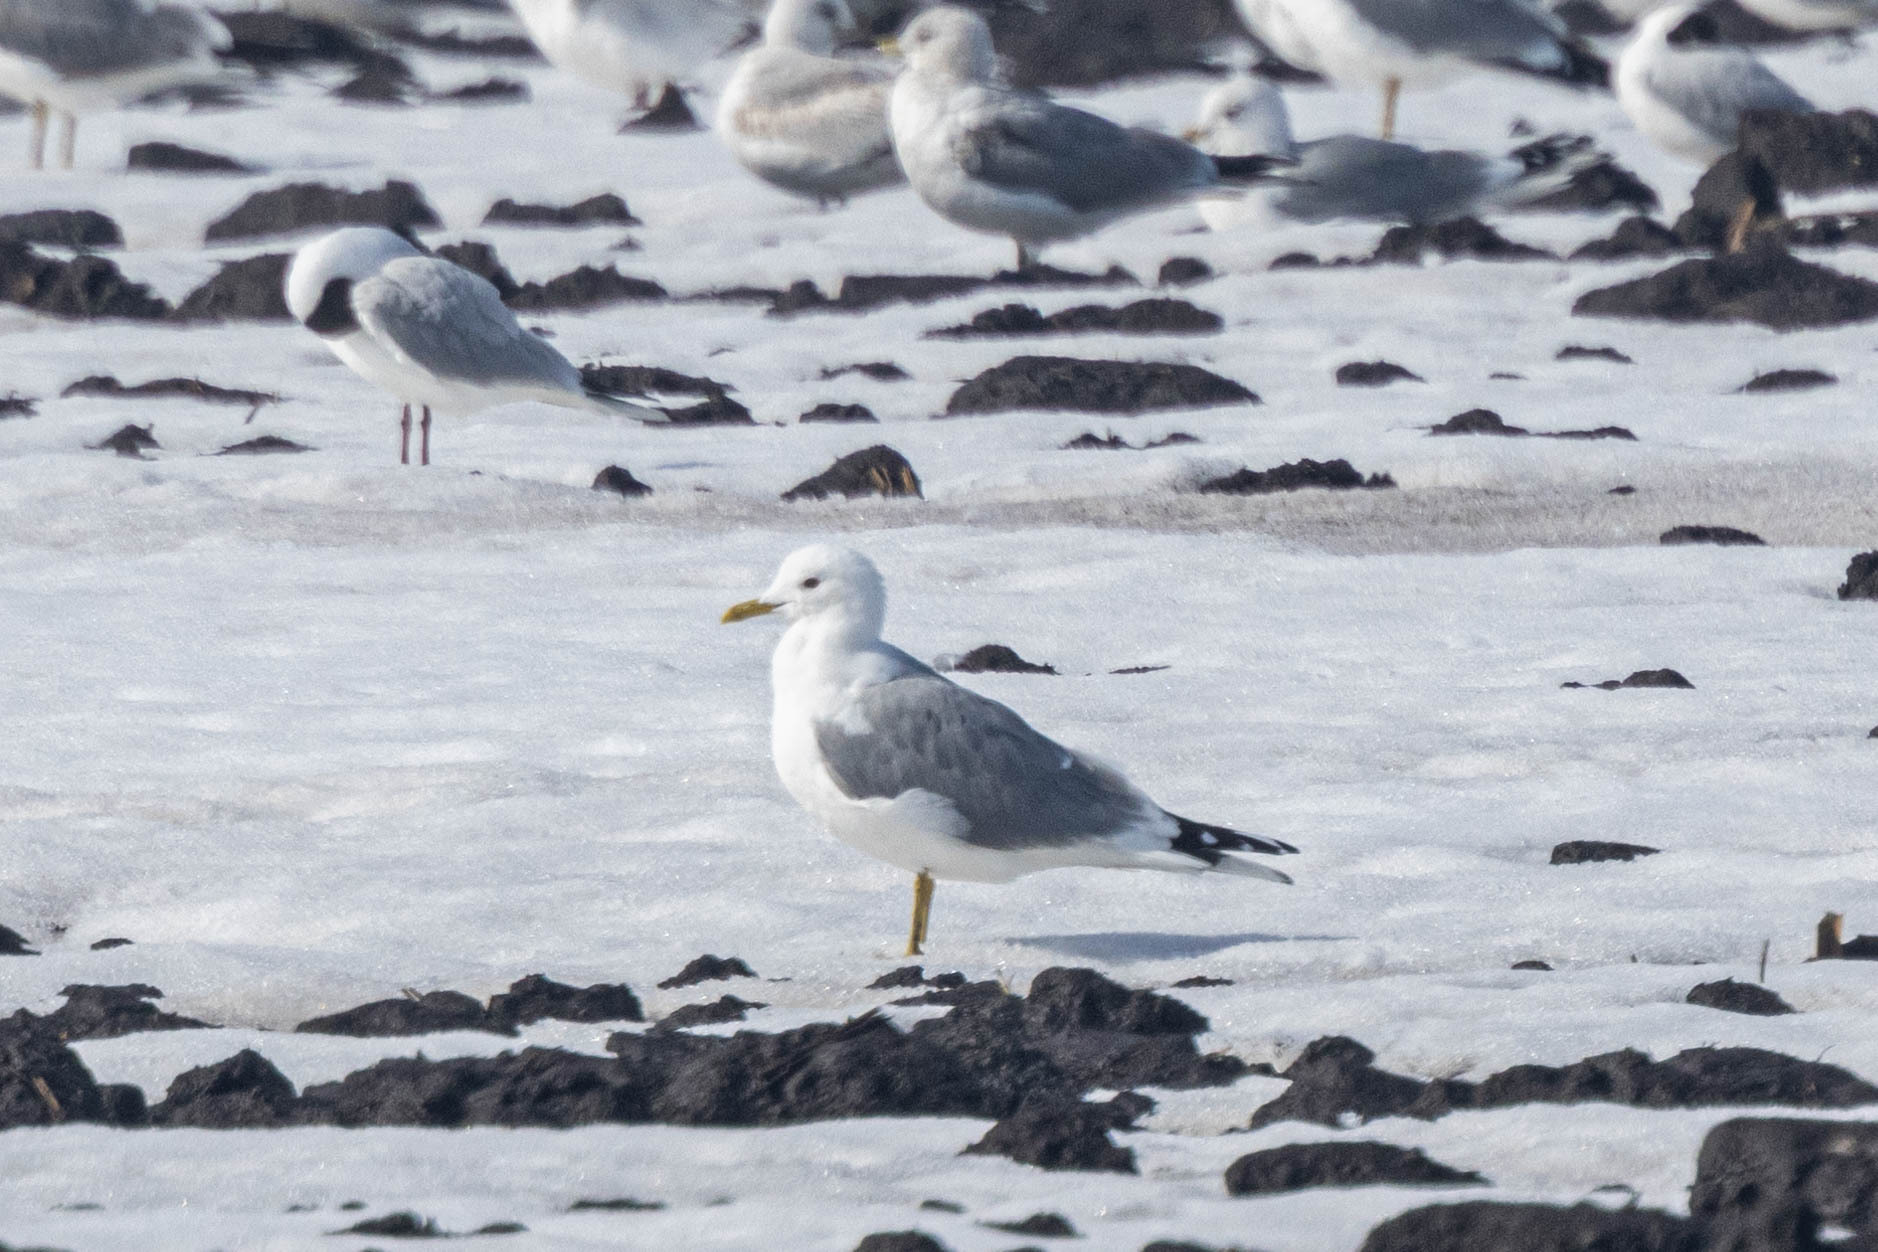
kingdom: Animalia
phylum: Chordata
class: Aves
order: Charadriiformes
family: Laridae
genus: Larus
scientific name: Larus canus
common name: Mew gull
